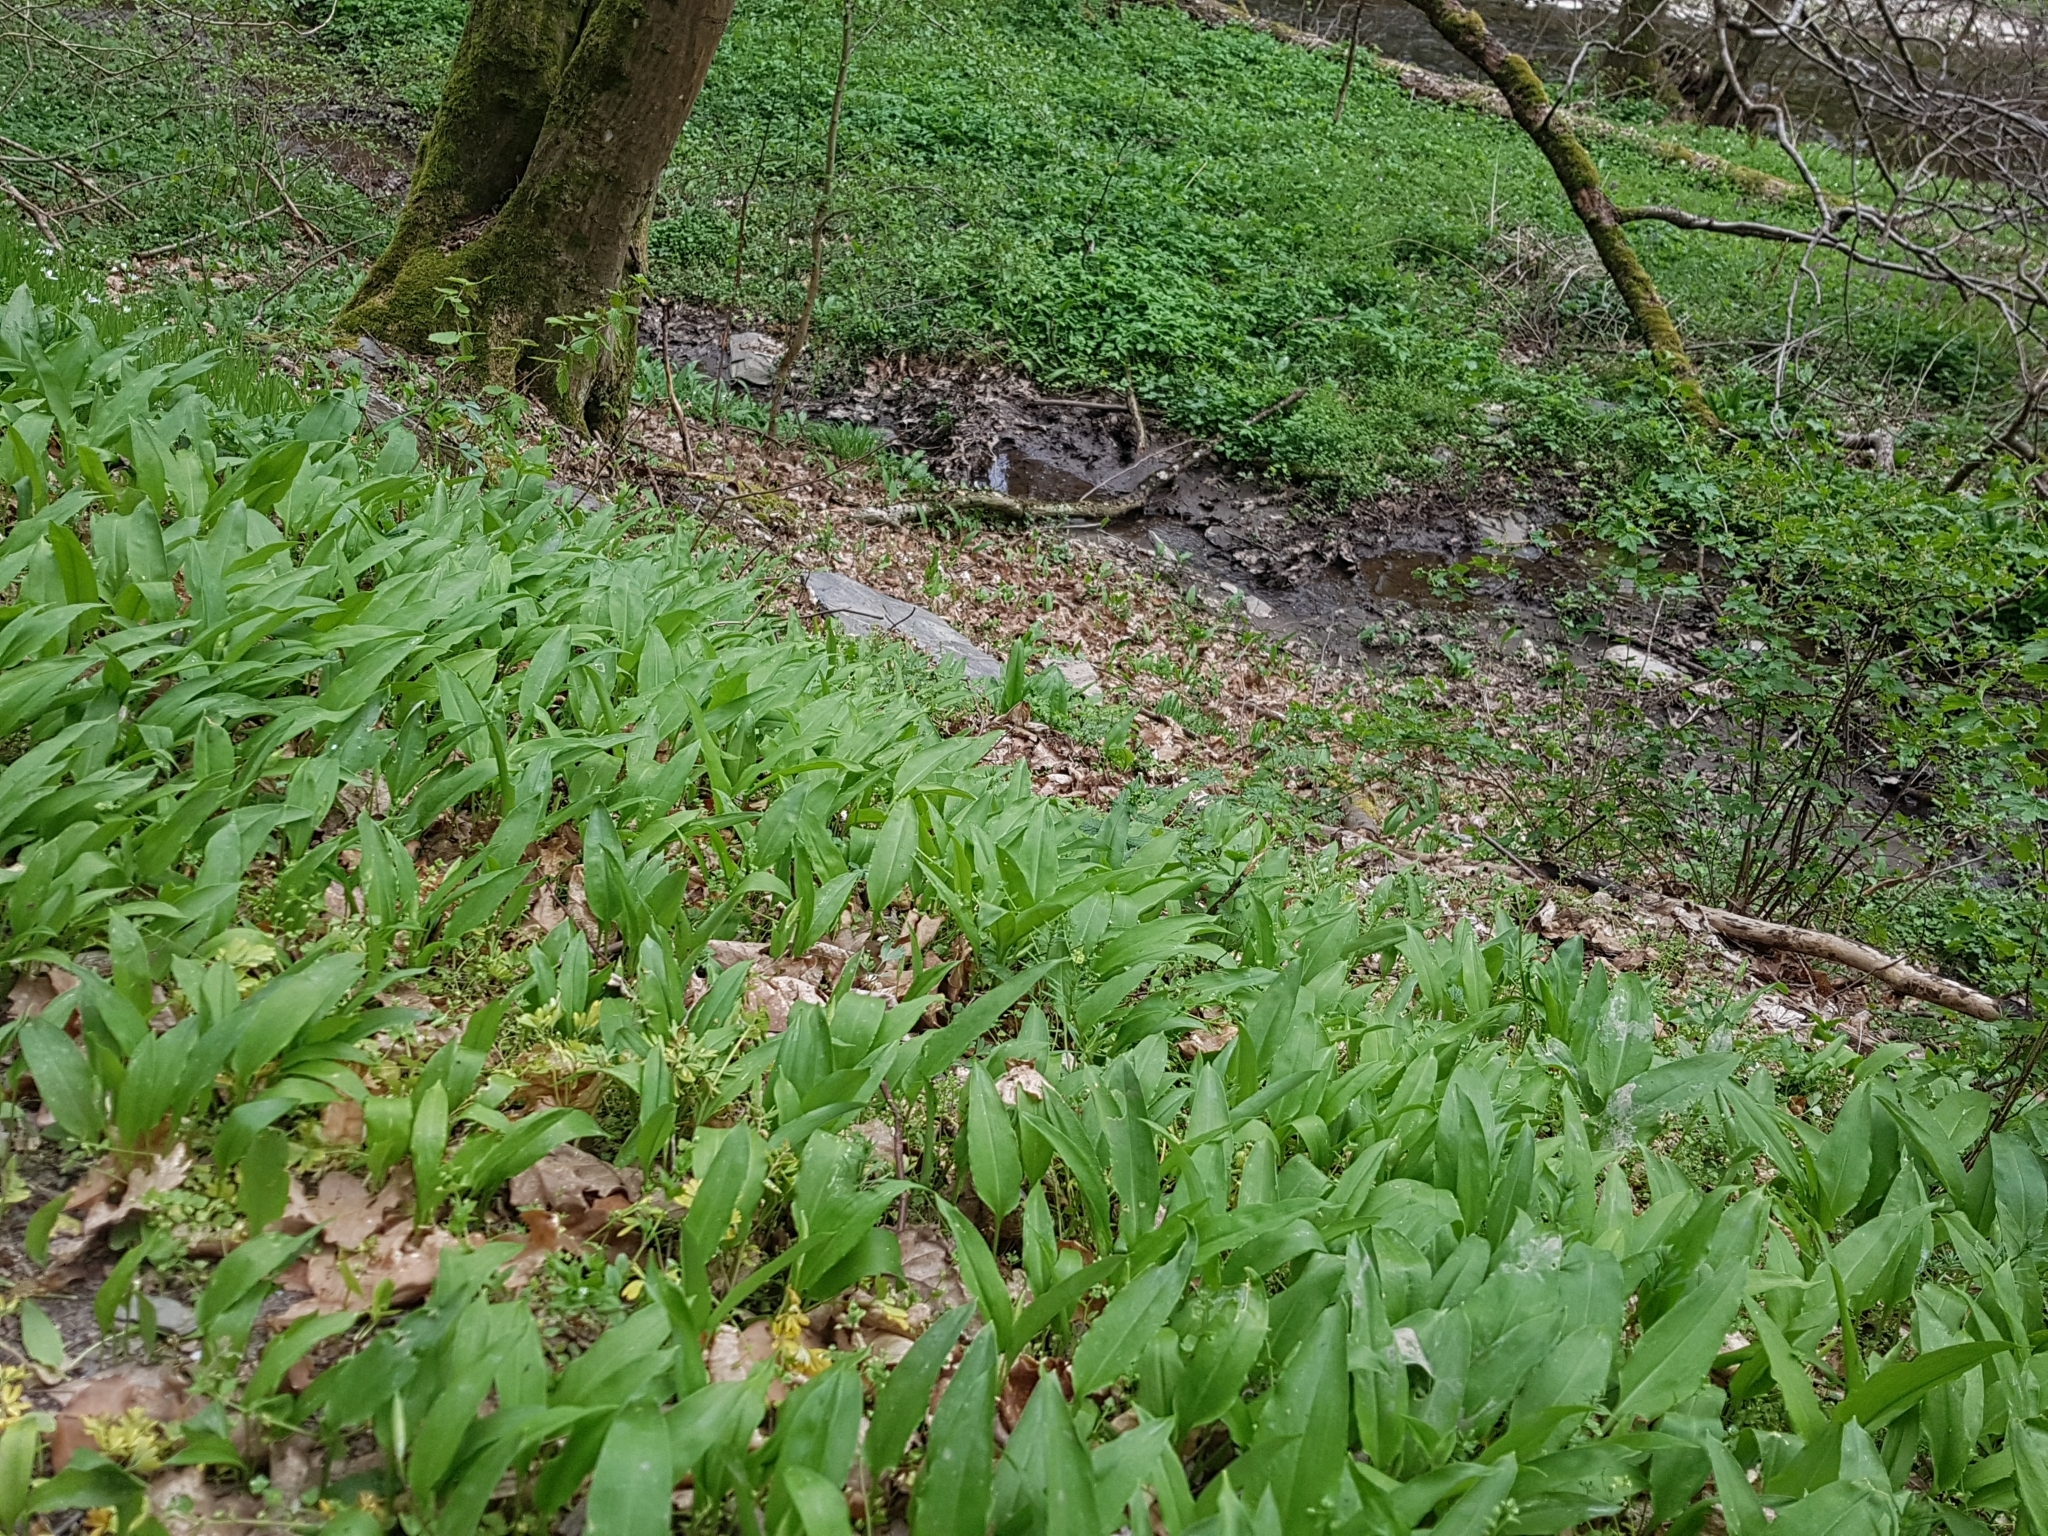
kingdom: Plantae
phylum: Tracheophyta
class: Liliopsida
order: Asparagales
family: Amaryllidaceae
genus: Allium
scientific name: Allium ursinum
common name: Ramsons
